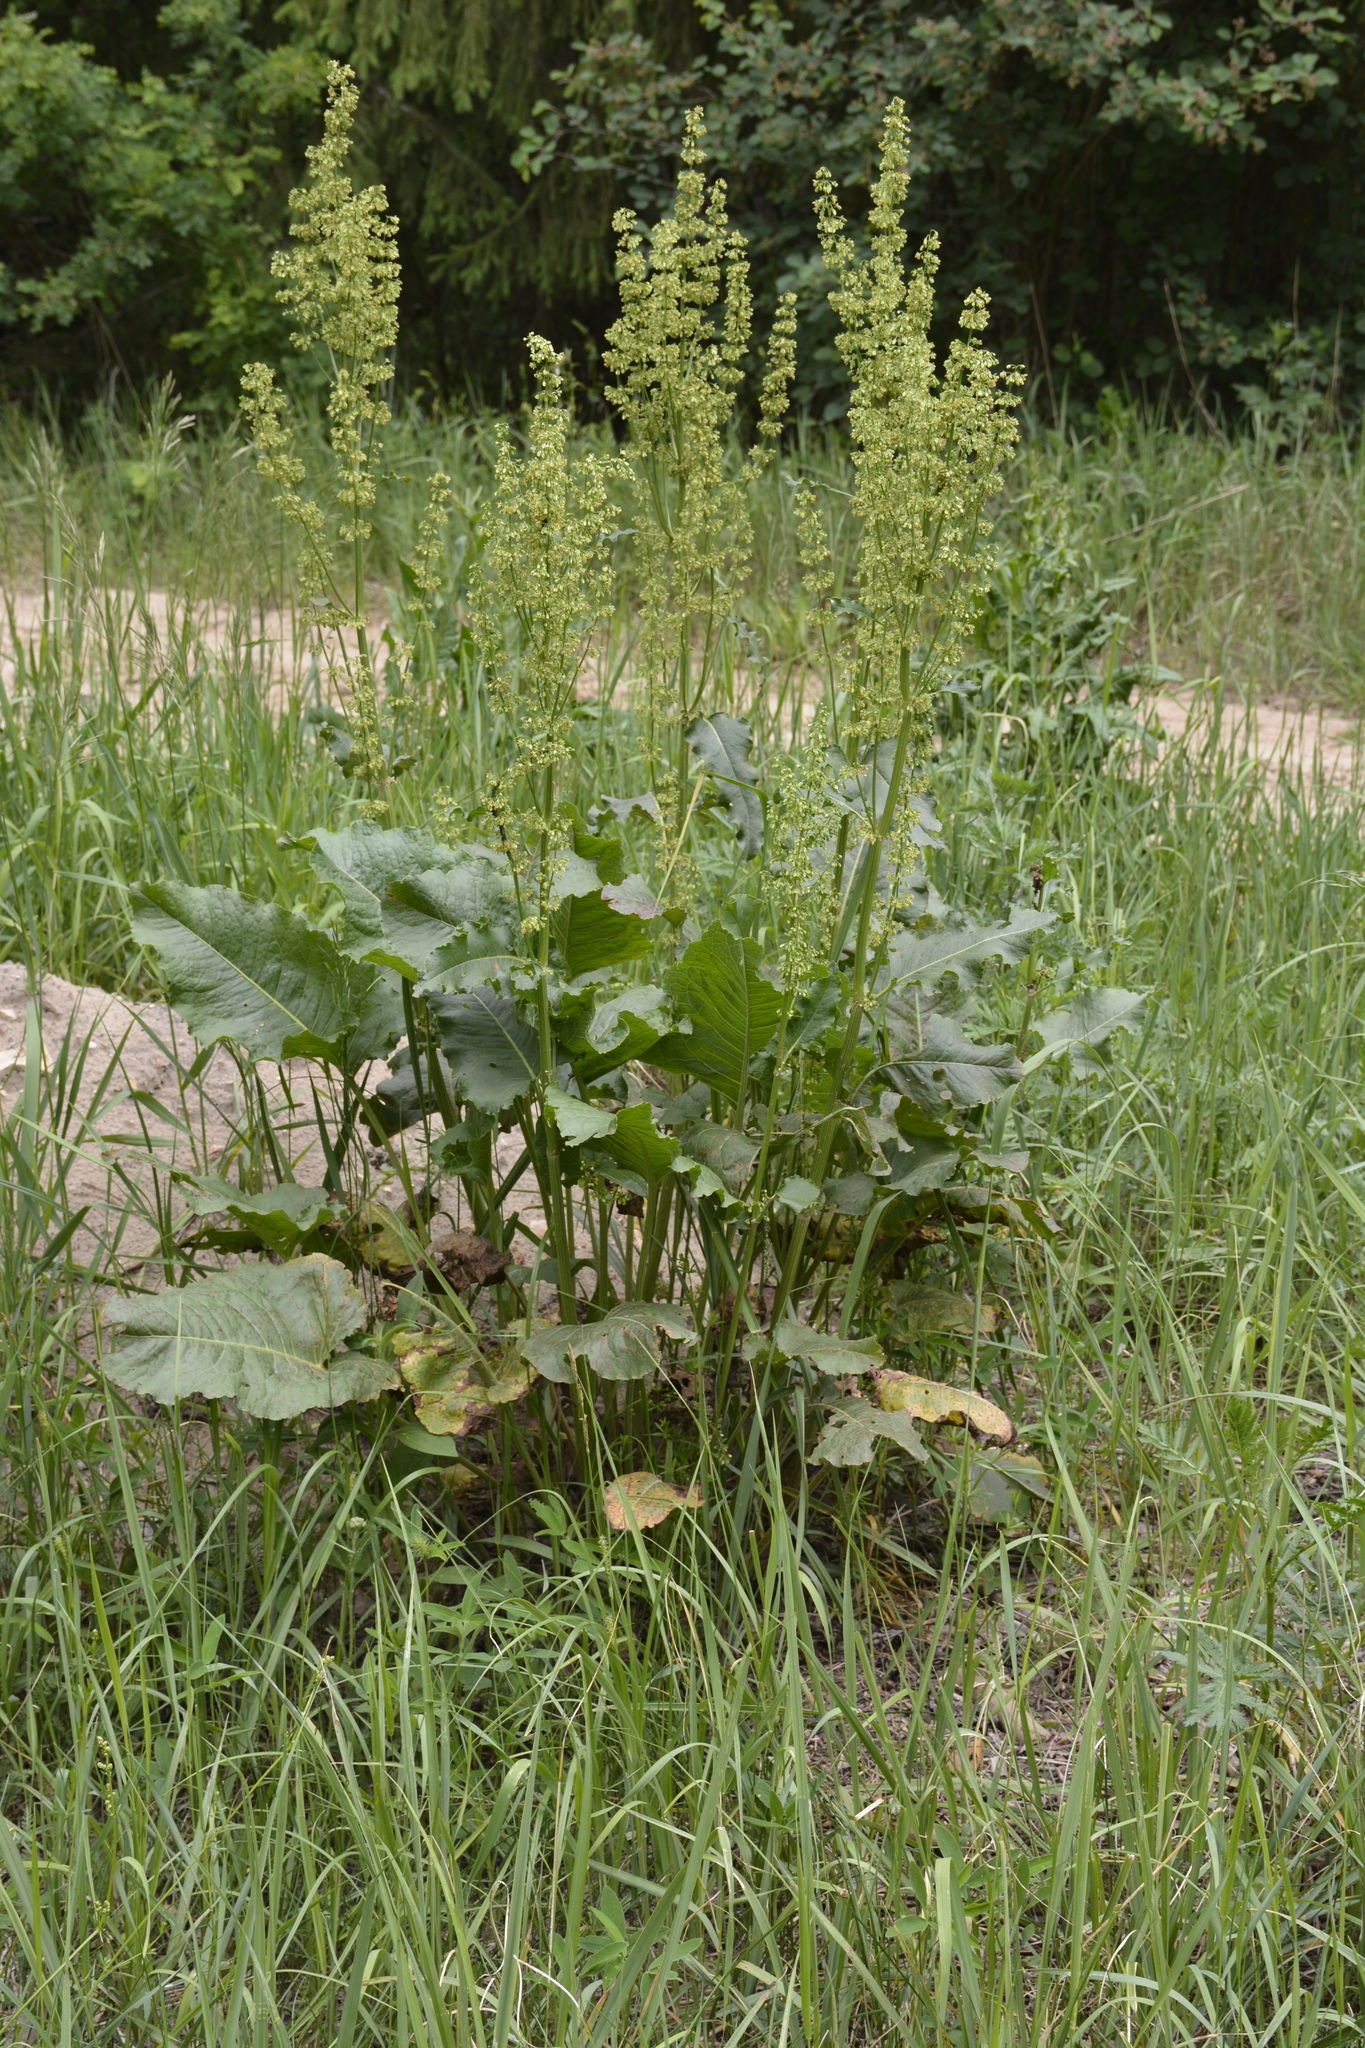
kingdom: Plantae
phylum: Tracheophyta
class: Magnoliopsida
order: Caryophyllales
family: Polygonaceae
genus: Rumex
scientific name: Rumex confertus
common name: Russian dock
